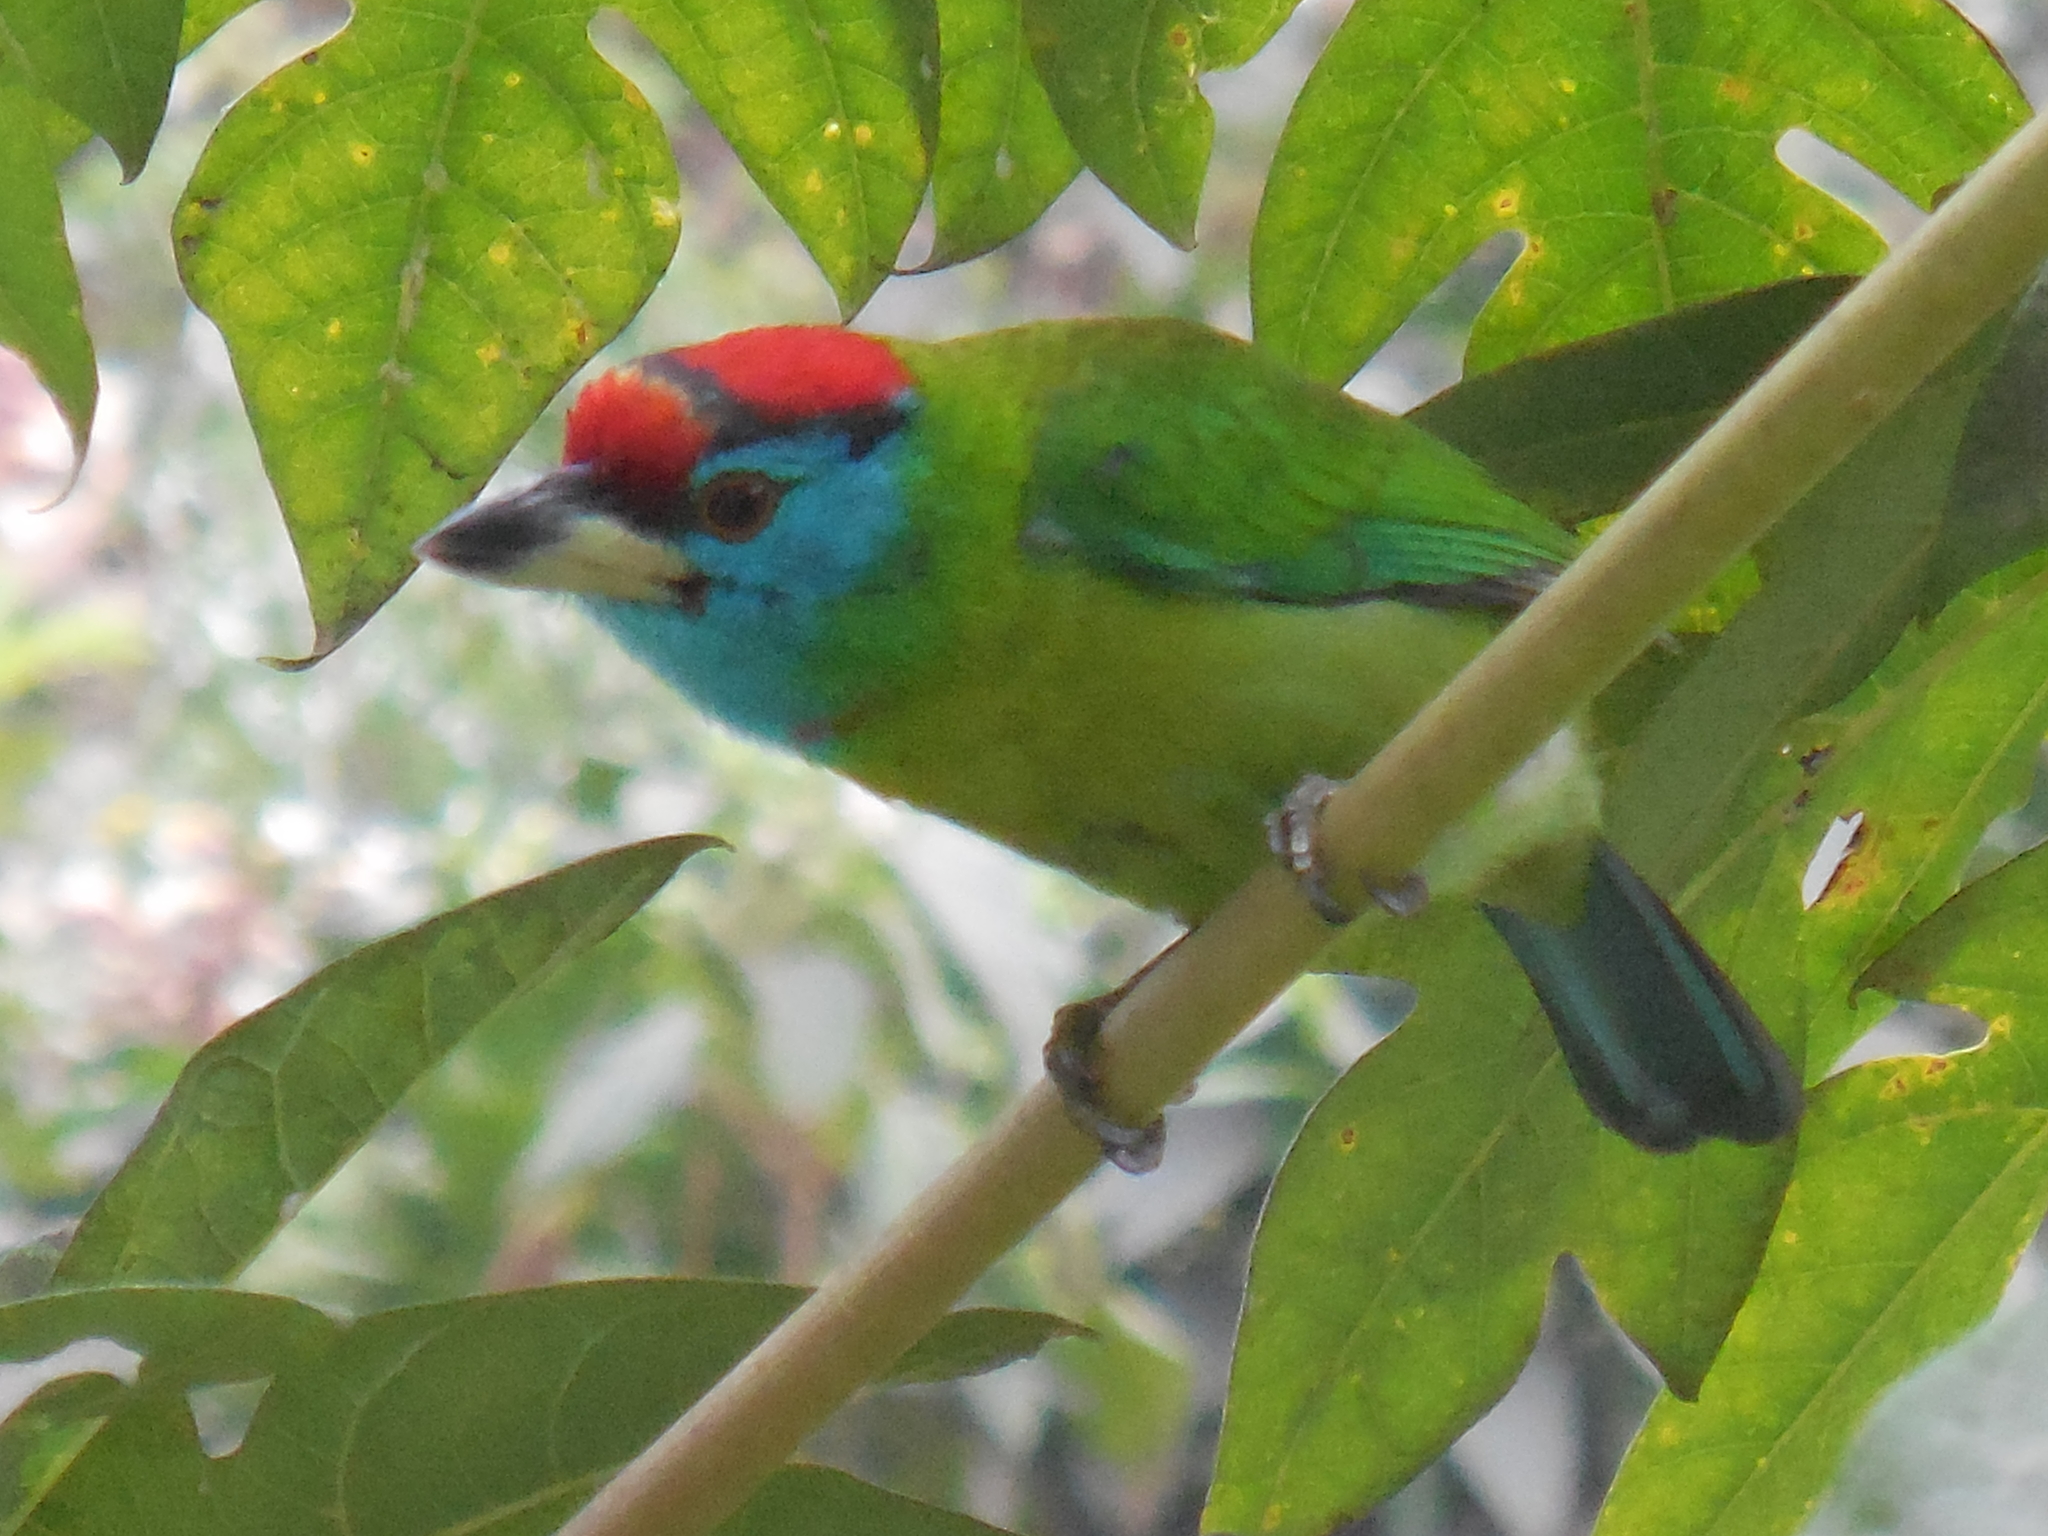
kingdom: Animalia
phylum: Chordata
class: Aves
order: Piciformes
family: Megalaimidae
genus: Psilopogon
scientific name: Psilopogon asiaticus
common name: Blue-throated barbet
